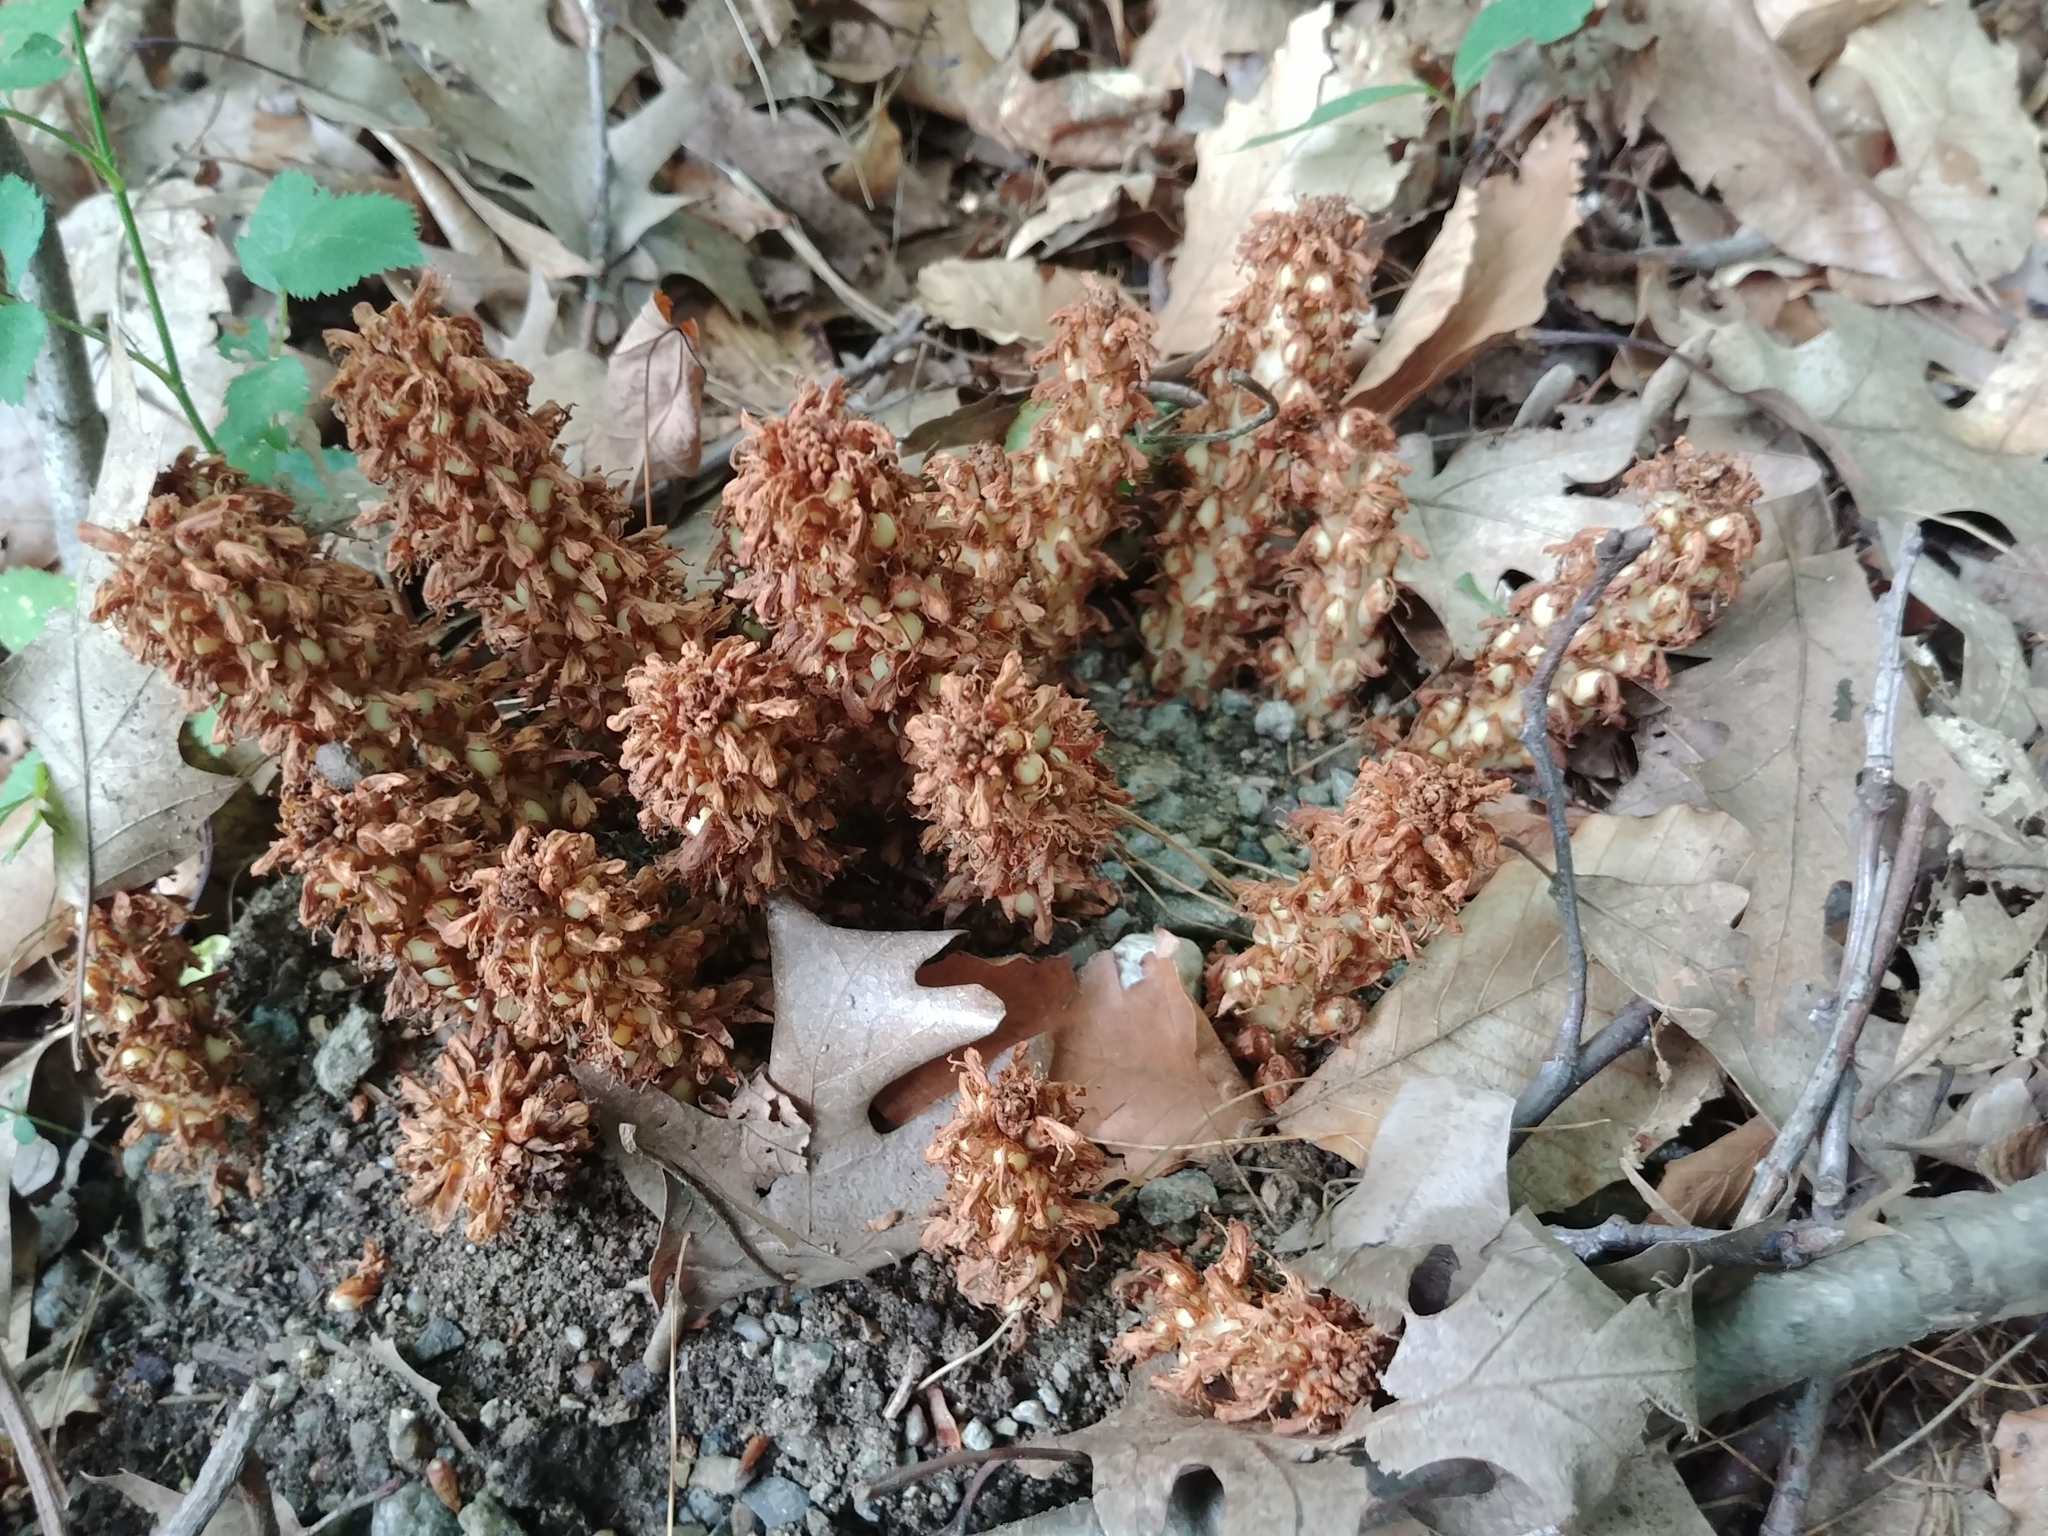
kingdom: Plantae
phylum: Tracheophyta
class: Magnoliopsida
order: Lamiales
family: Orobanchaceae
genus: Conopholis
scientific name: Conopholis americana
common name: American cancer-root
